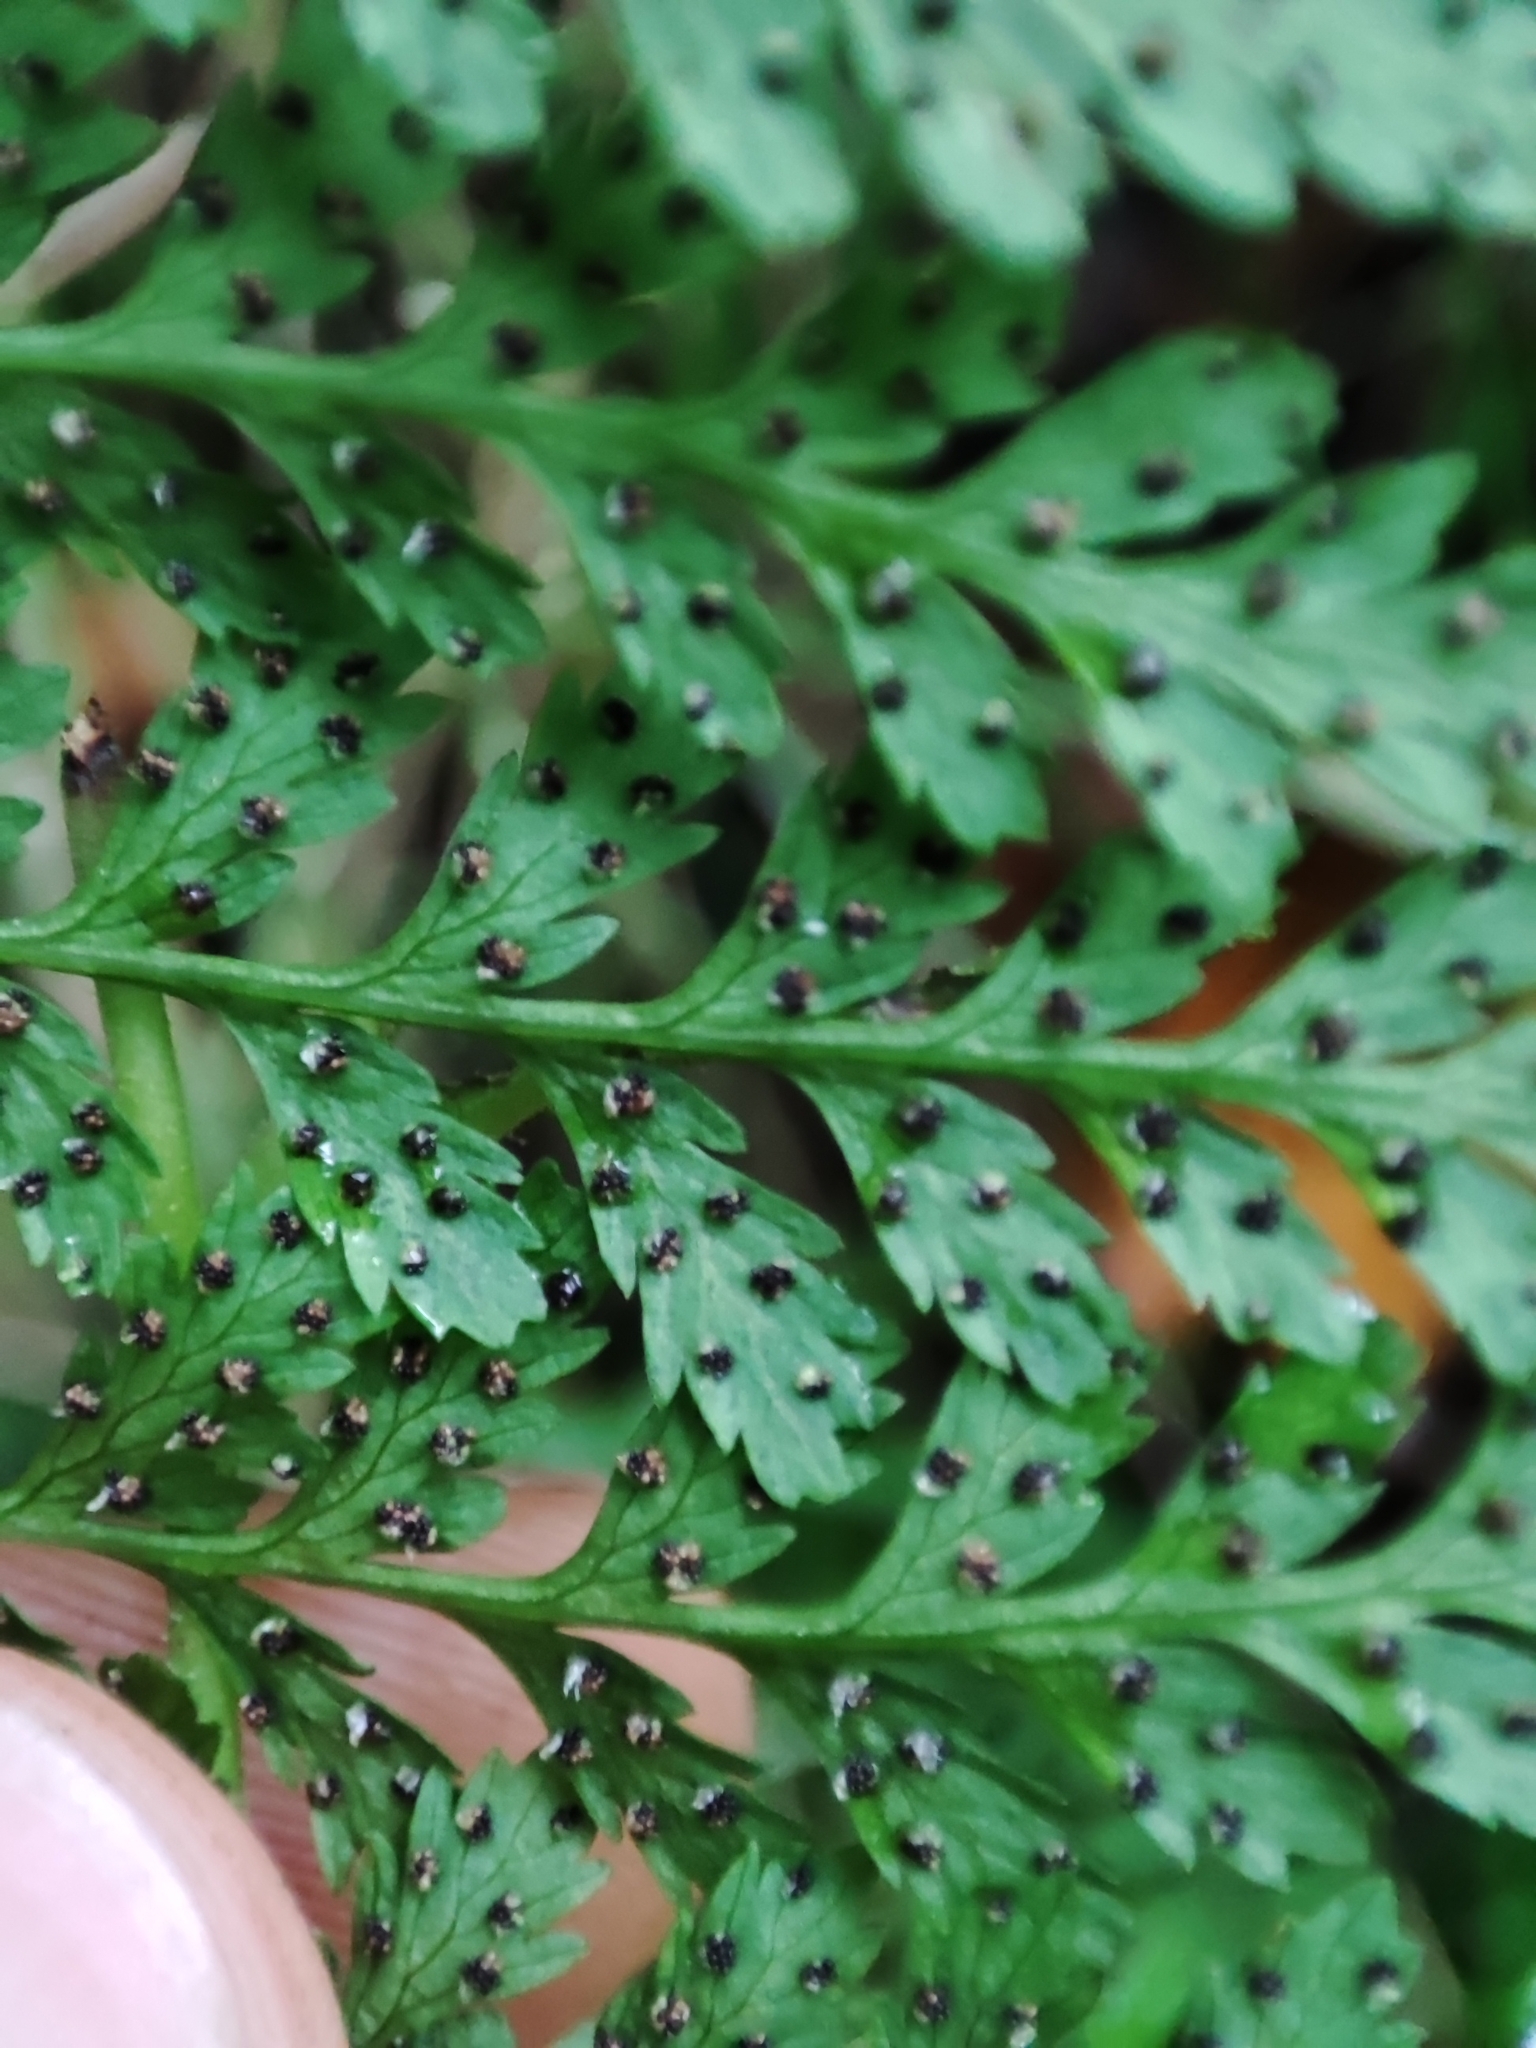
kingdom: Plantae
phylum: Tracheophyta
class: Polypodiopsida
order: Polypodiales
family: Cystopteridaceae
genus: Cystopteris
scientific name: Cystopteris fragilis
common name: Brittle bladder fern
